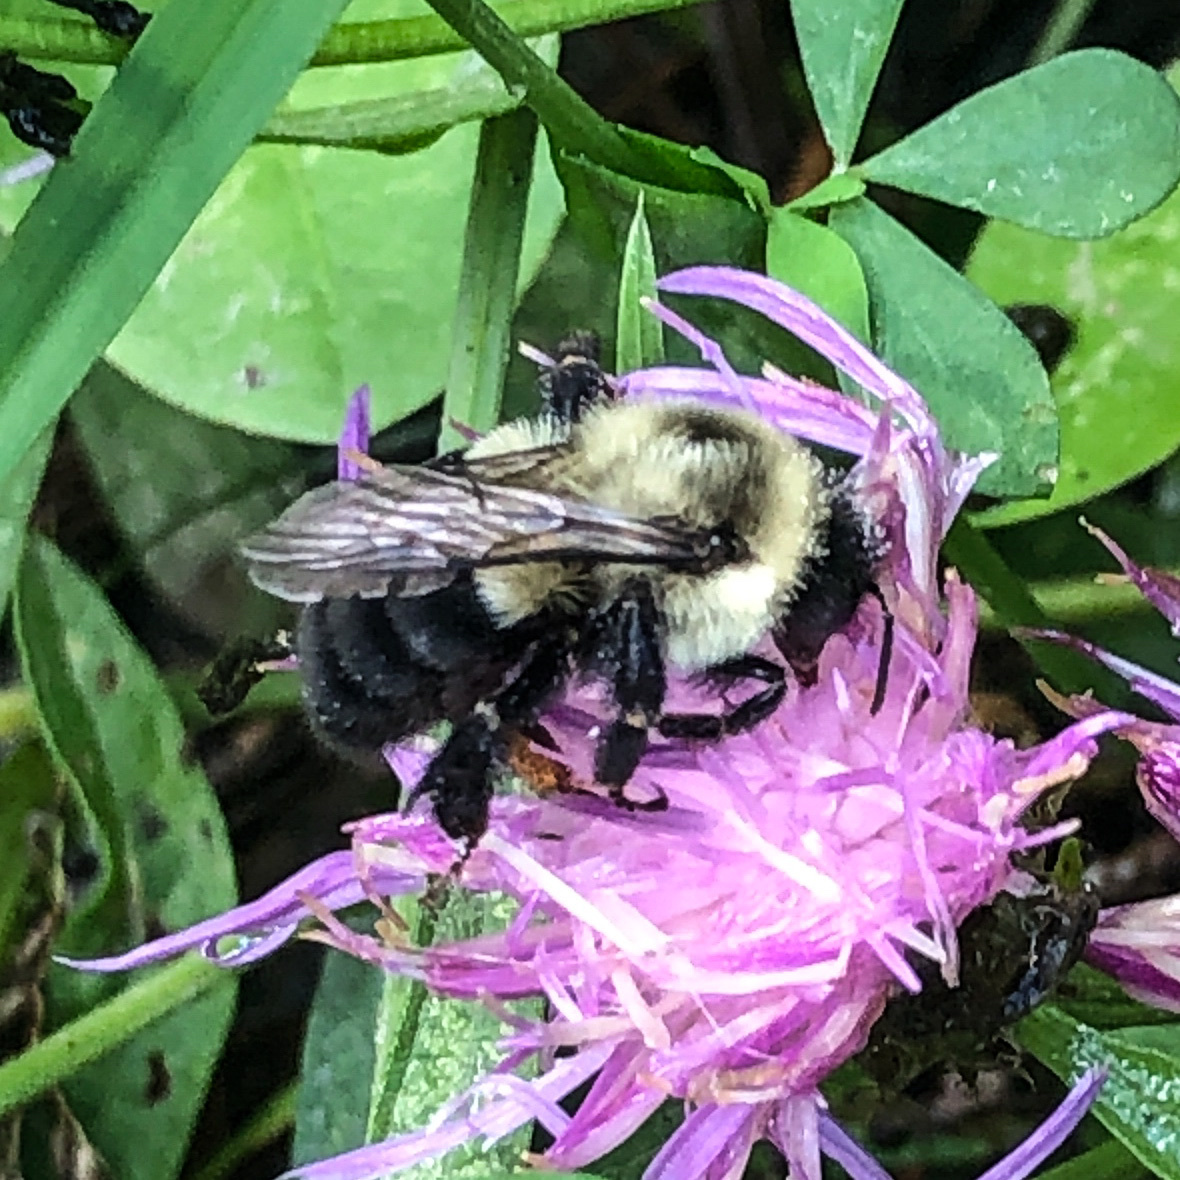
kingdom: Animalia
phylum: Arthropoda
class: Insecta
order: Hymenoptera
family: Apidae
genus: Bombus
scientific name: Bombus impatiens
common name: Common eastern bumble bee
